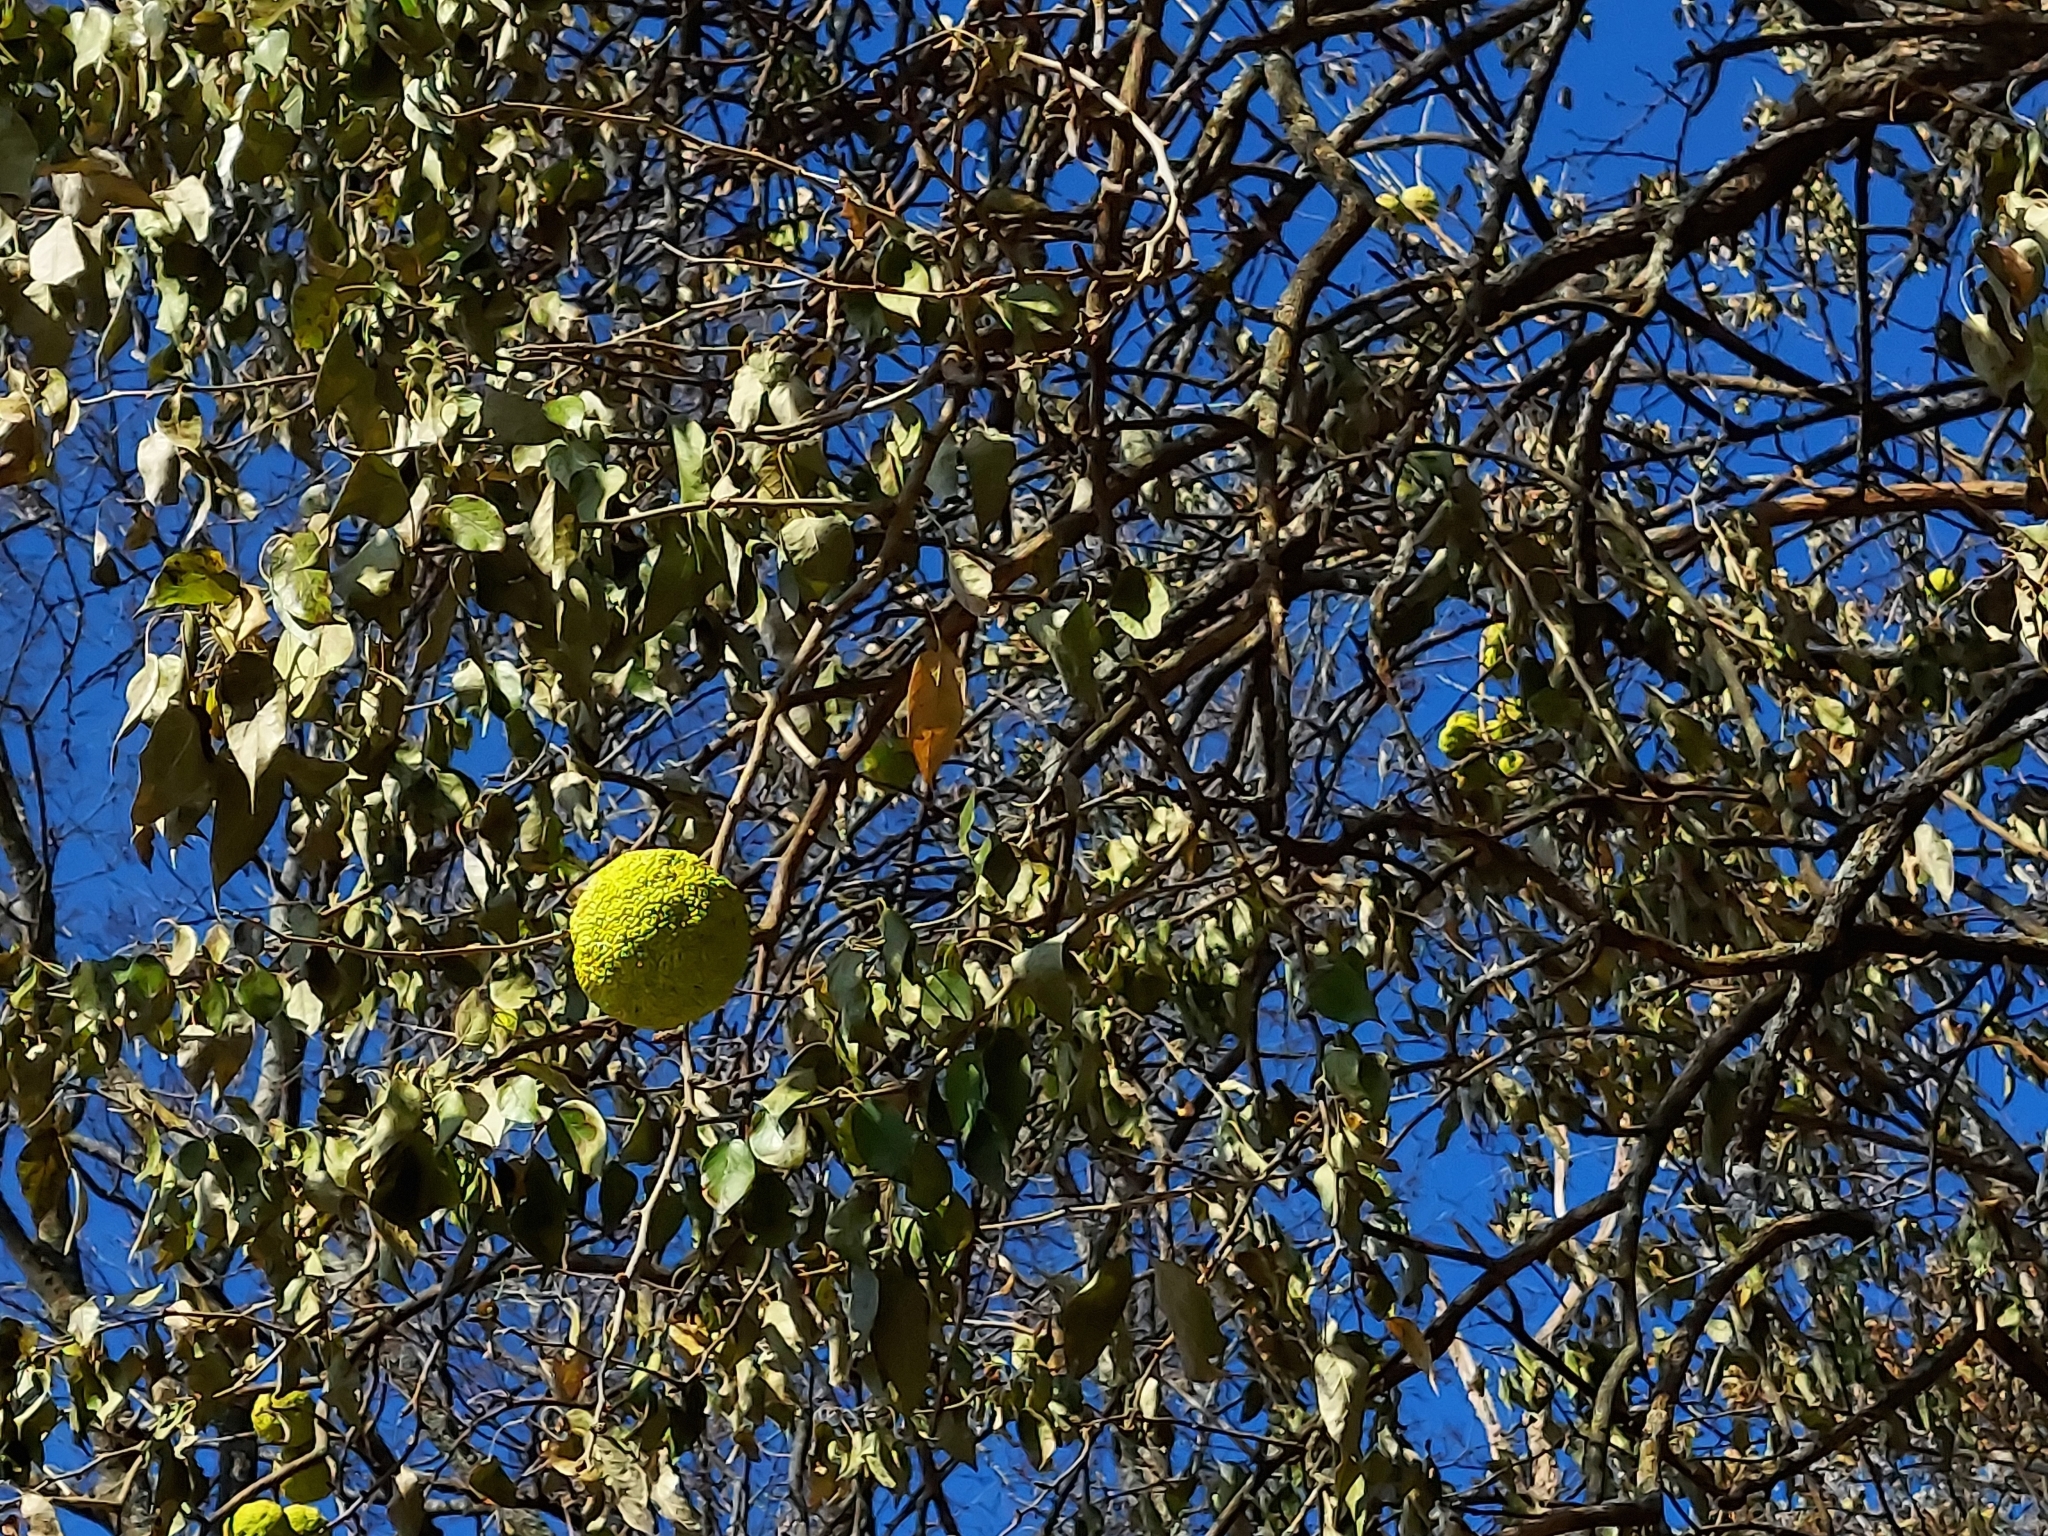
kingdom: Plantae
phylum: Tracheophyta
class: Magnoliopsida
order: Rosales
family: Moraceae
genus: Maclura
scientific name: Maclura pomifera
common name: Osage-orange
